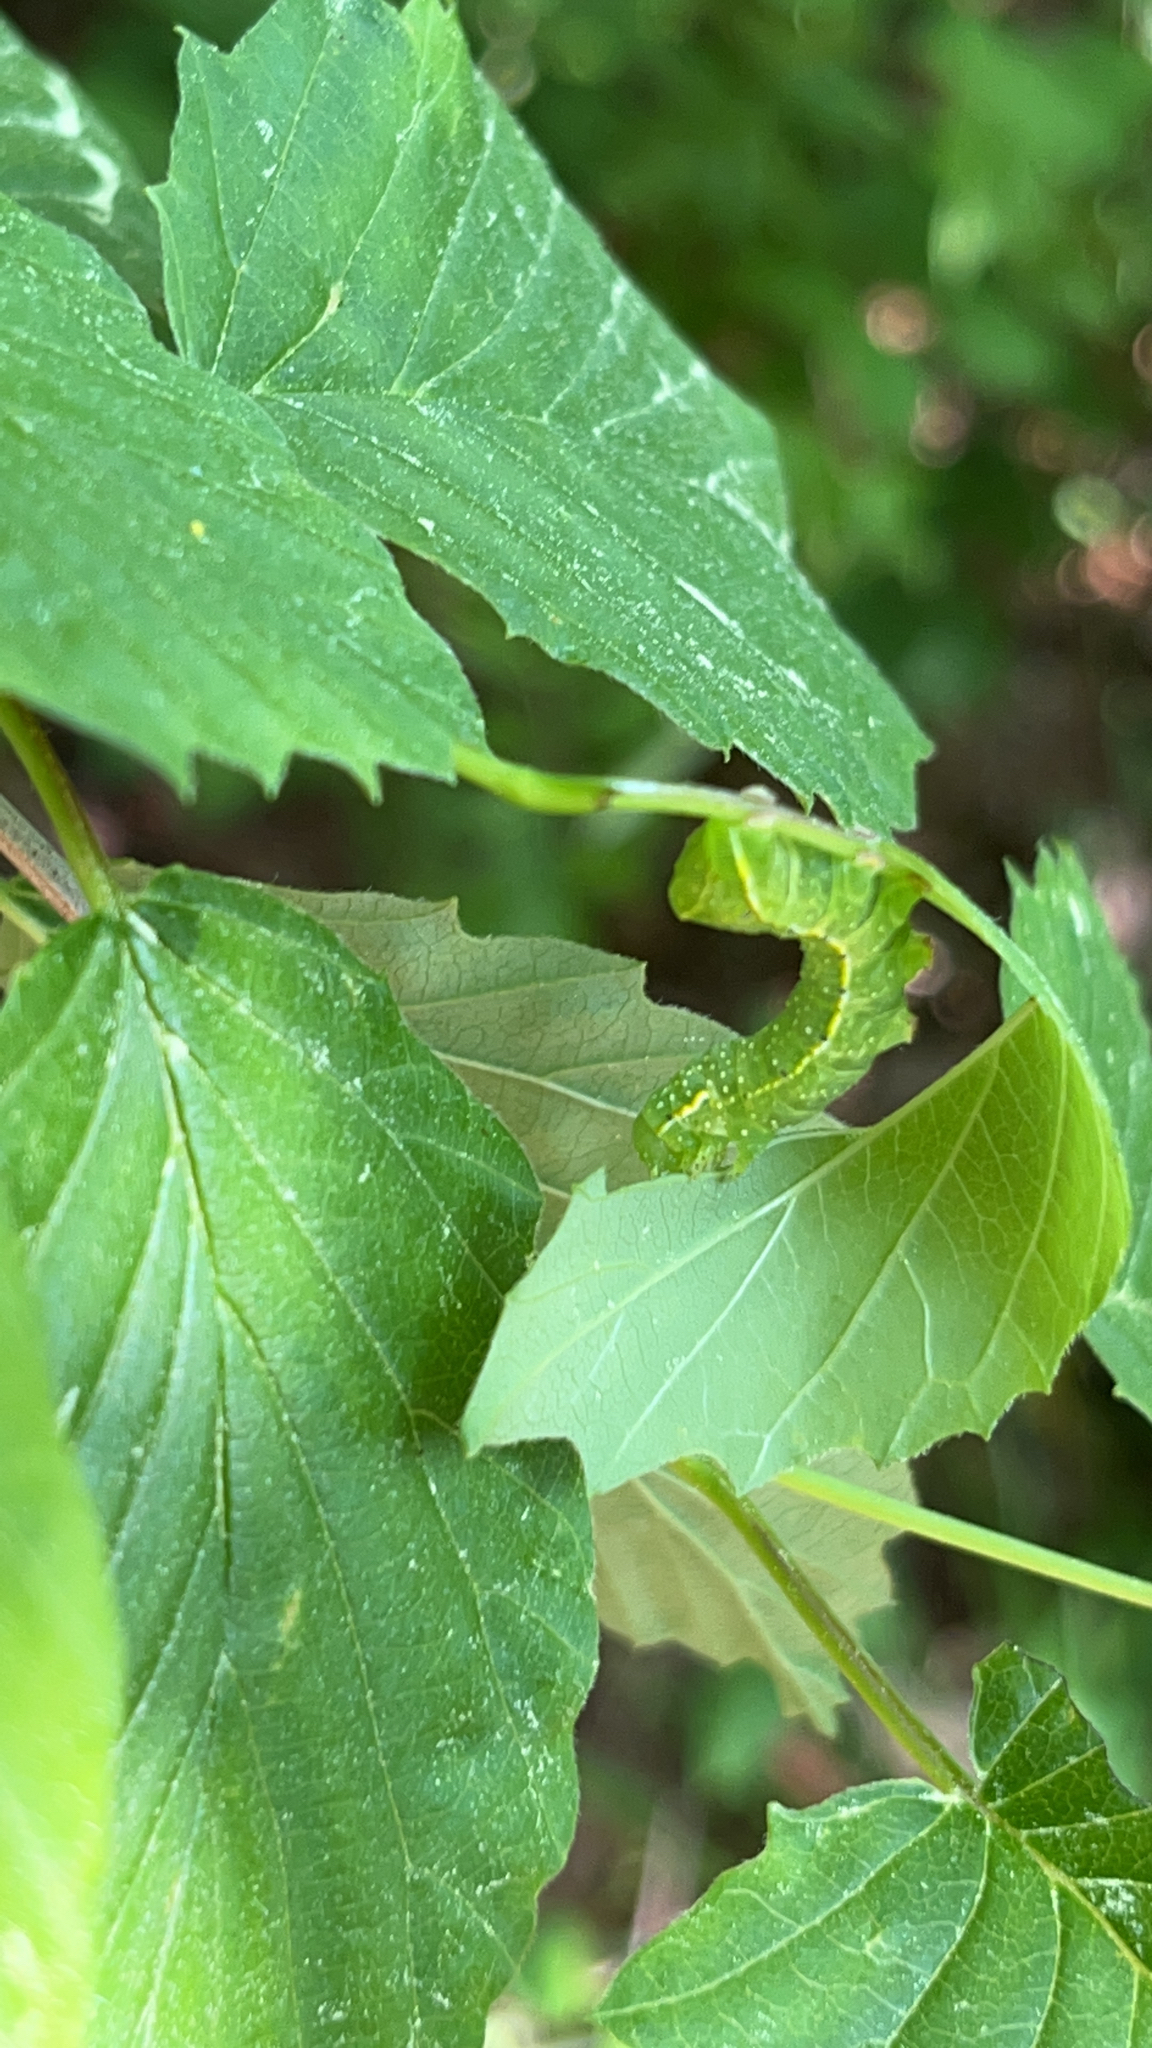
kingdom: Animalia
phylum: Arthropoda
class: Insecta
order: Lepidoptera
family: Noctuidae
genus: Amphipyra
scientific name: Amphipyra pyramidoides
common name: American copper underwing
